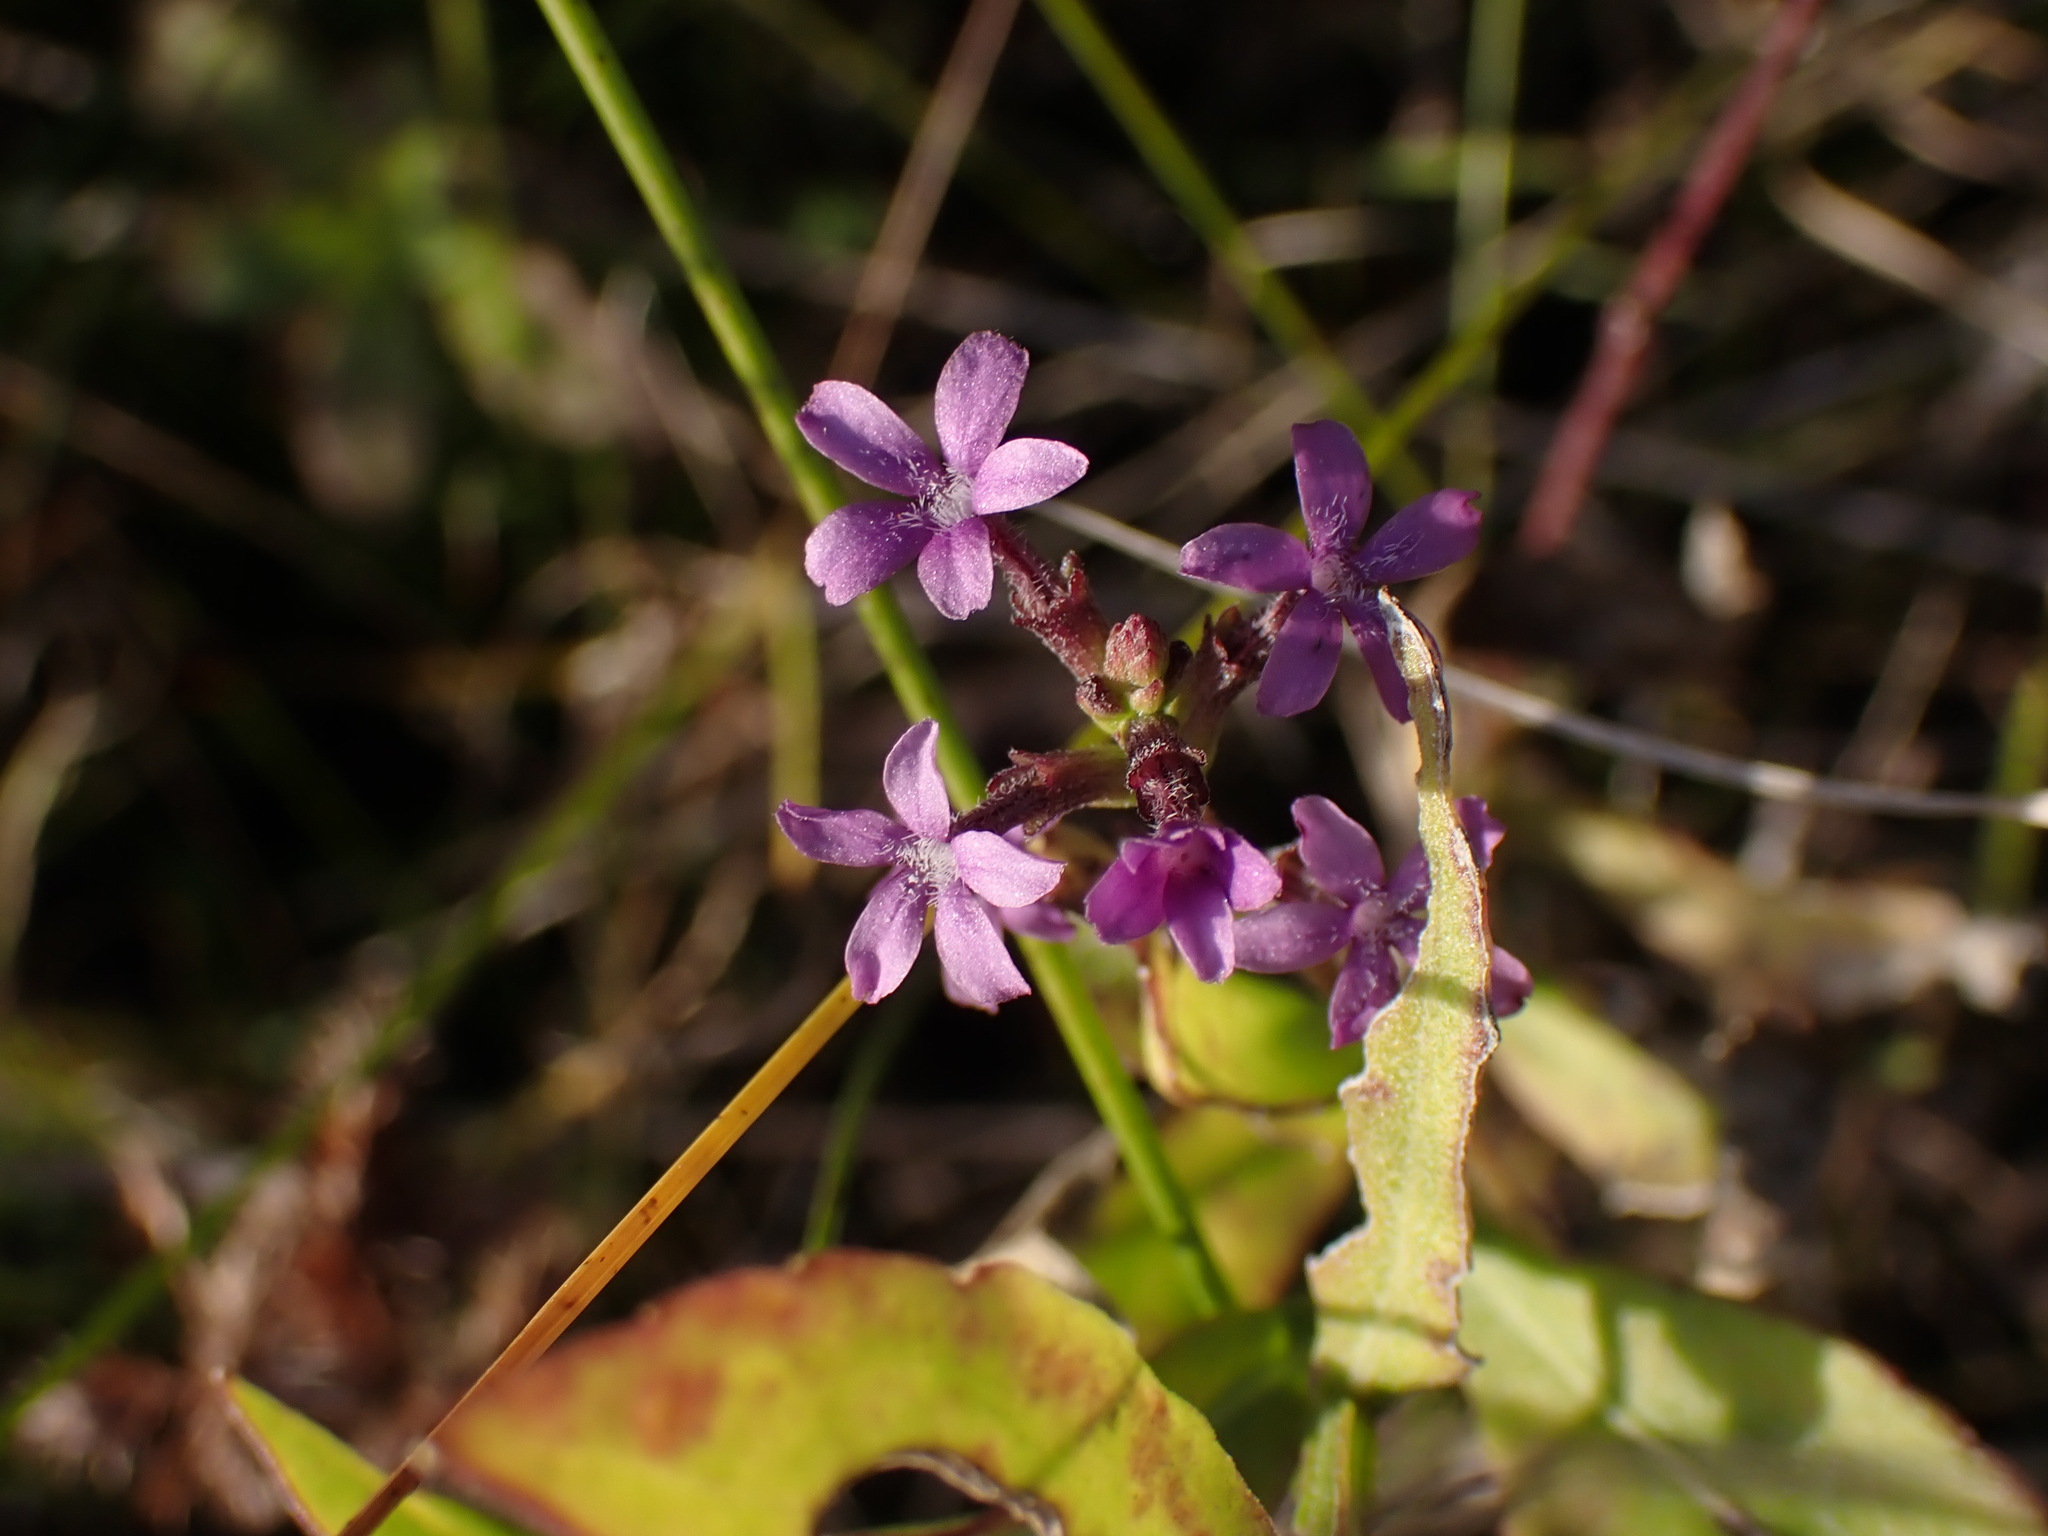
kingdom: Plantae
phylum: Tracheophyta
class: Magnoliopsida
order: Lamiales
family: Orobanchaceae
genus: Buchnera
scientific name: Buchnera floridana
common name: Florida bluehearts
